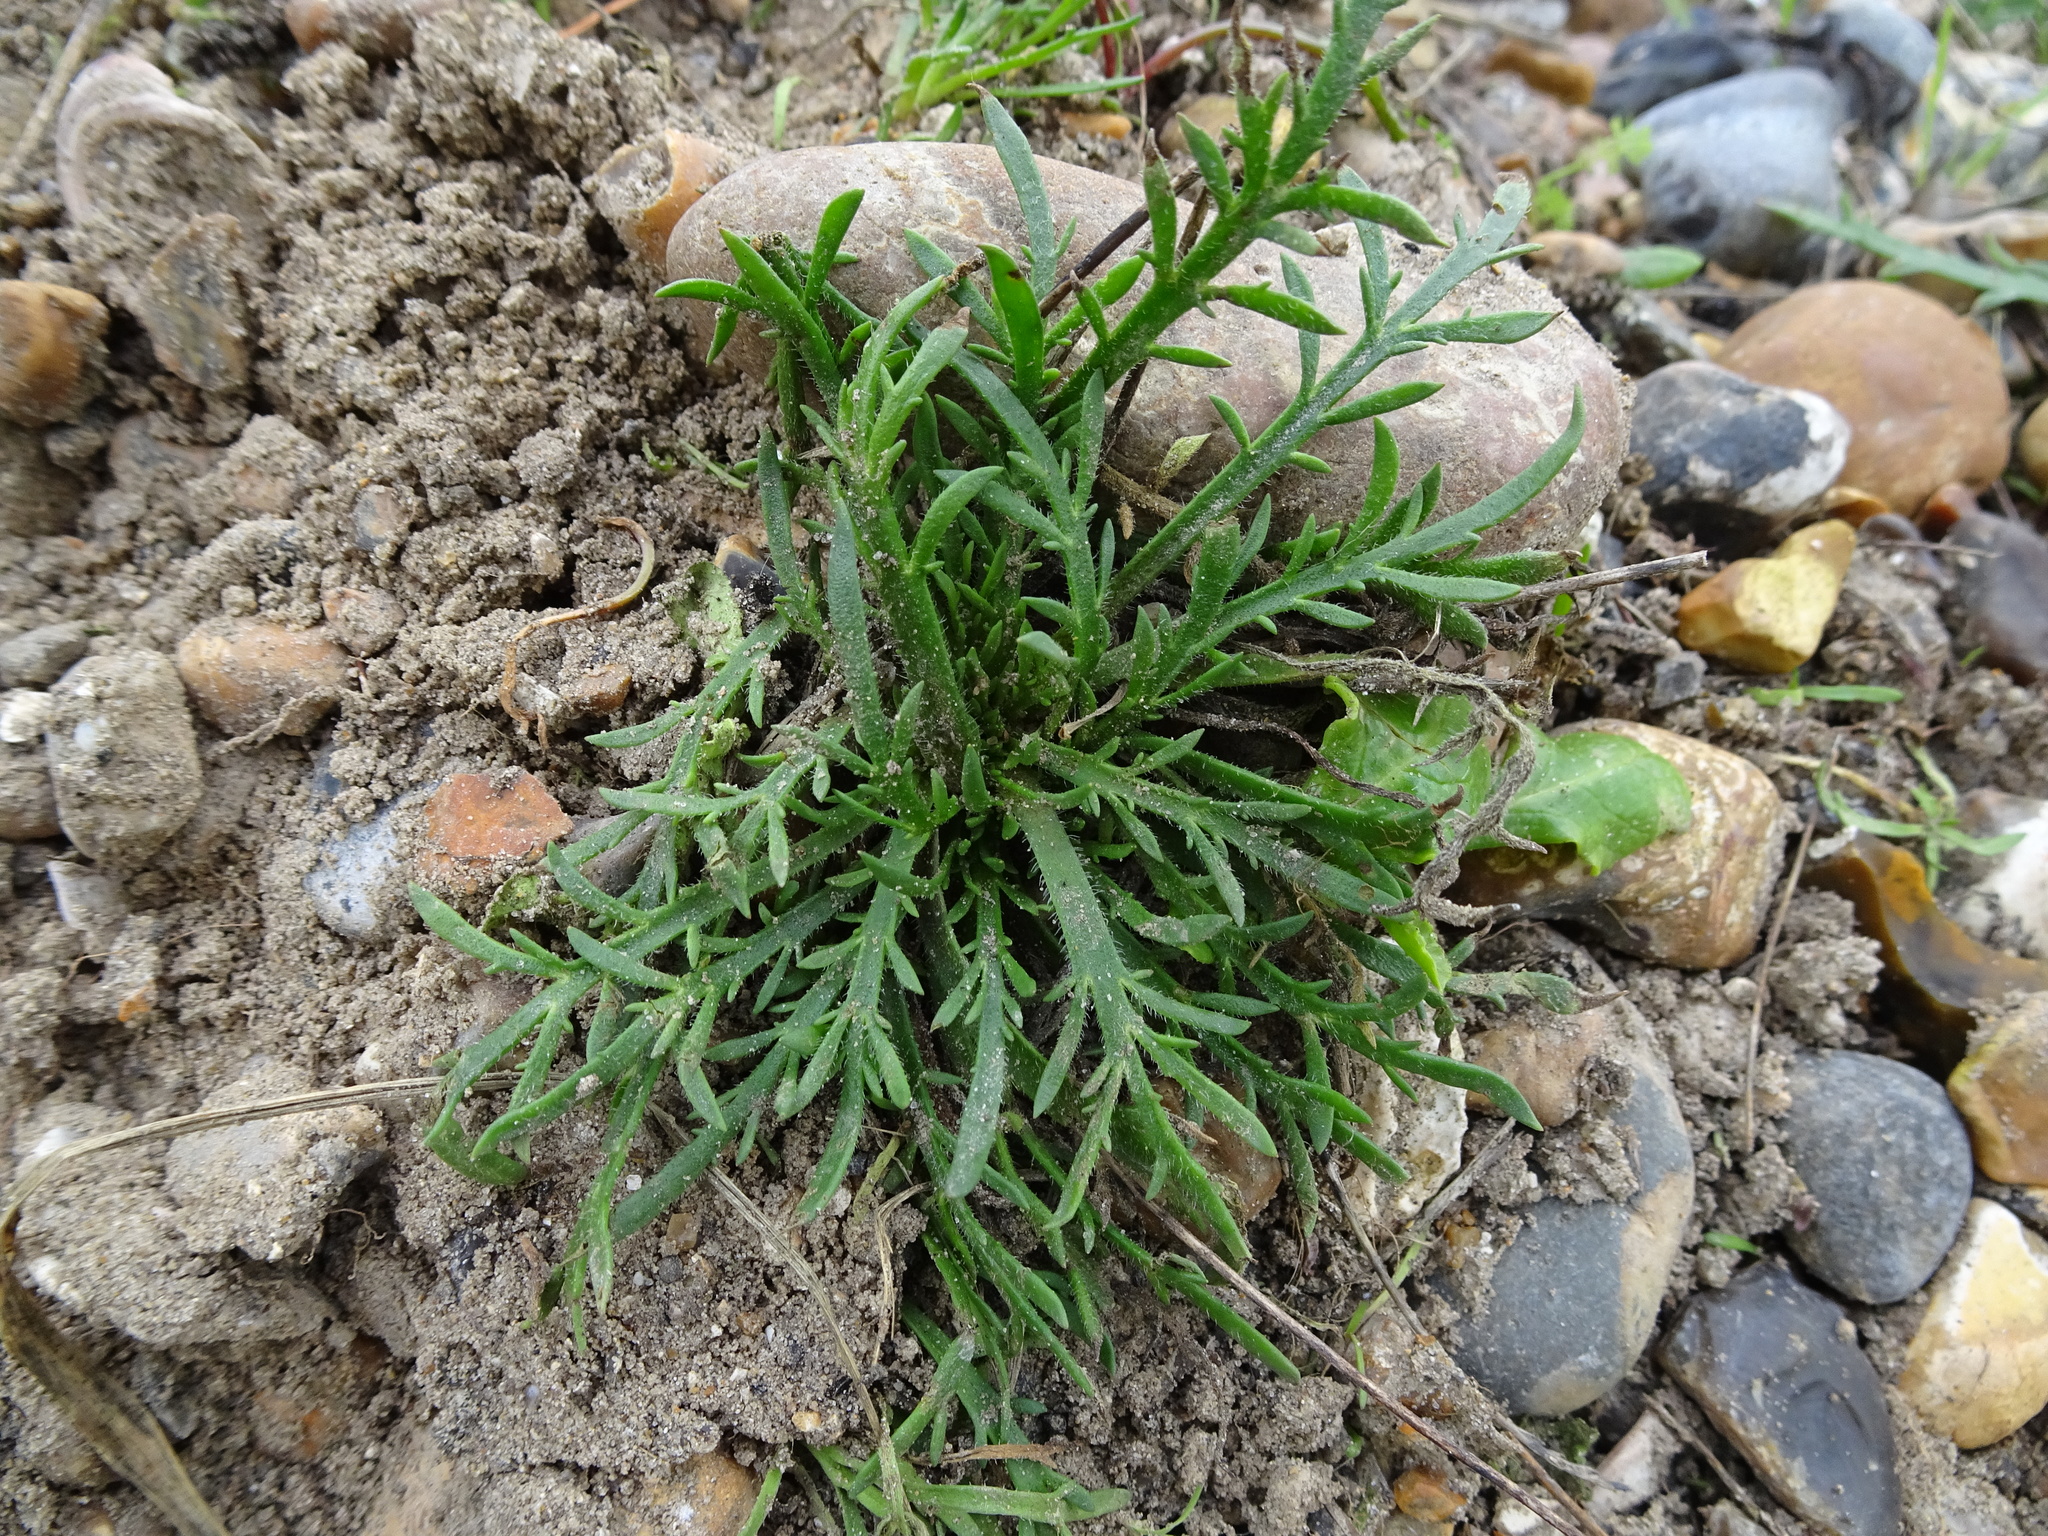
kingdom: Plantae
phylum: Tracheophyta
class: Magnoliopsida
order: Lamiales
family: Plantaginaceae
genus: Plantago
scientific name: Plantago coronopus
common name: Buck's-horn plantain
